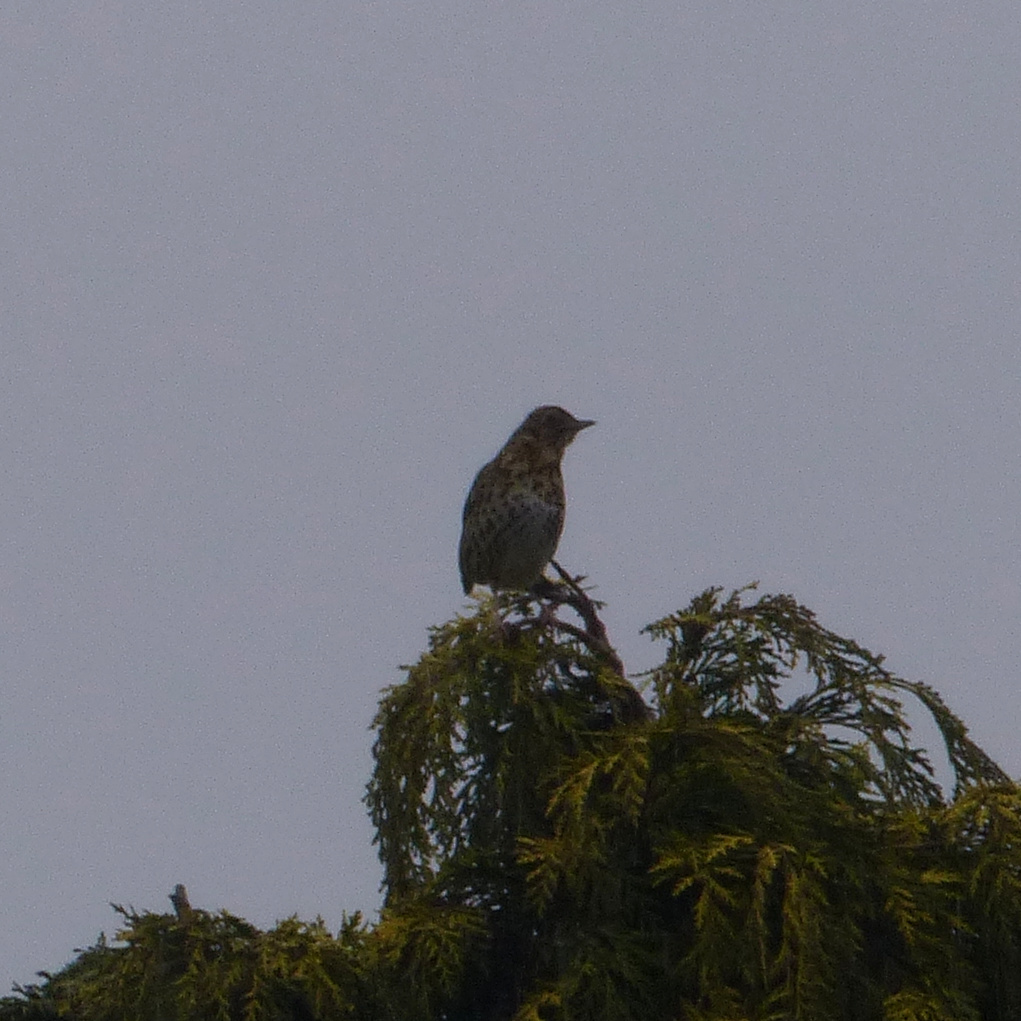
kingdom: Animalia
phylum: Chordata
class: Aves
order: Passeriformes
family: Turdidae
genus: Turdus
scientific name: Turdus philomelos
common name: Song thrush
